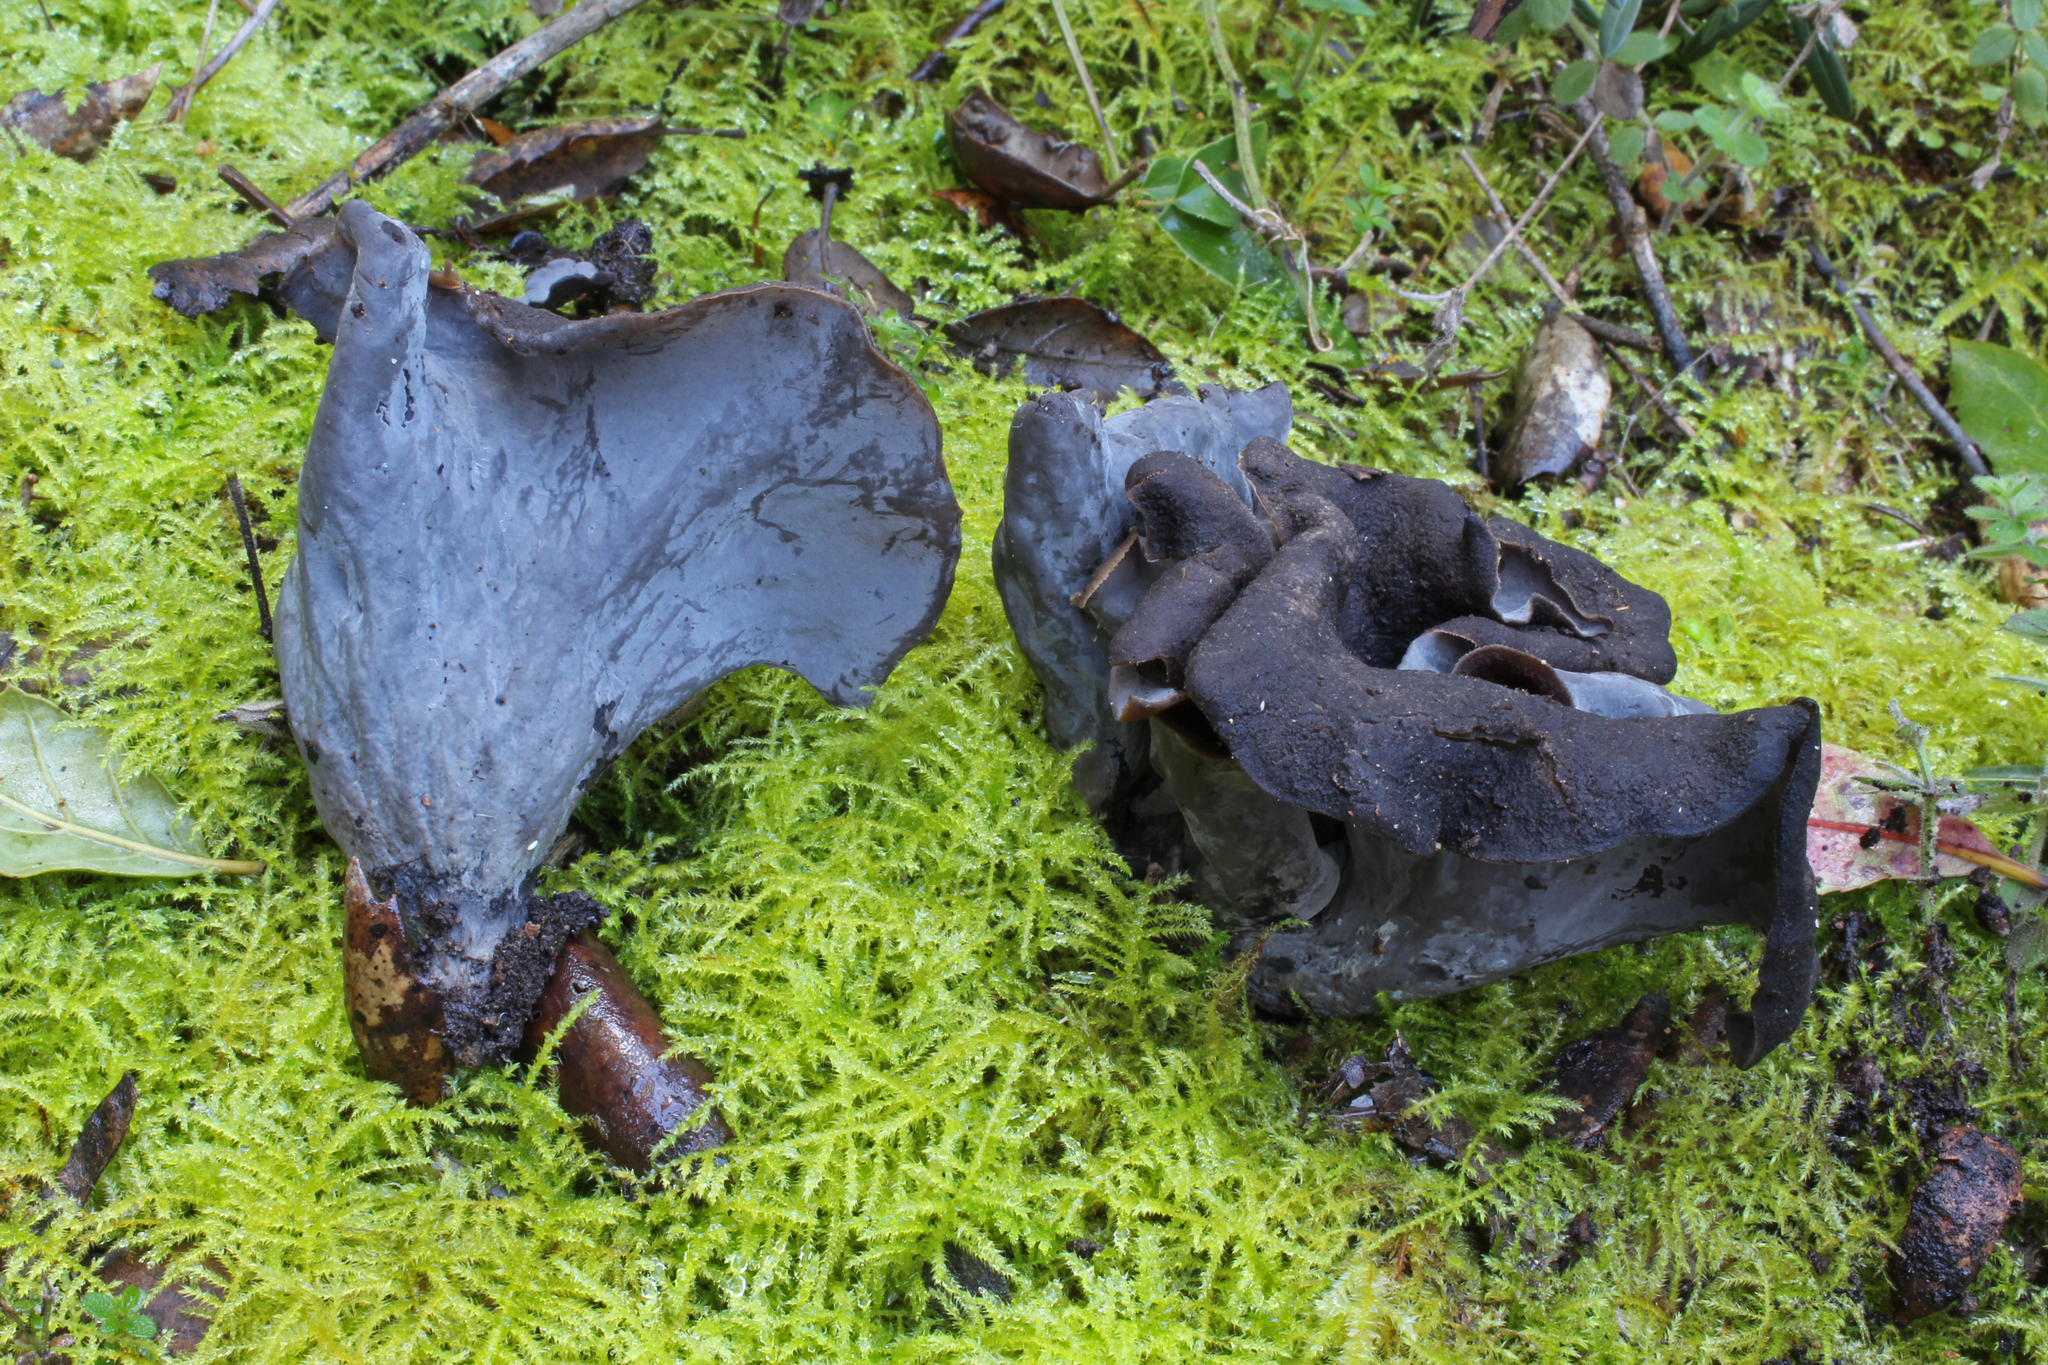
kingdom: Fungi
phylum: Basidiomycota
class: Agaricomycetes
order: Cantharellales
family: Hydnaceae
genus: Craterellus
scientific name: Craterellus cornucopioides
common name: Horn of plenty
